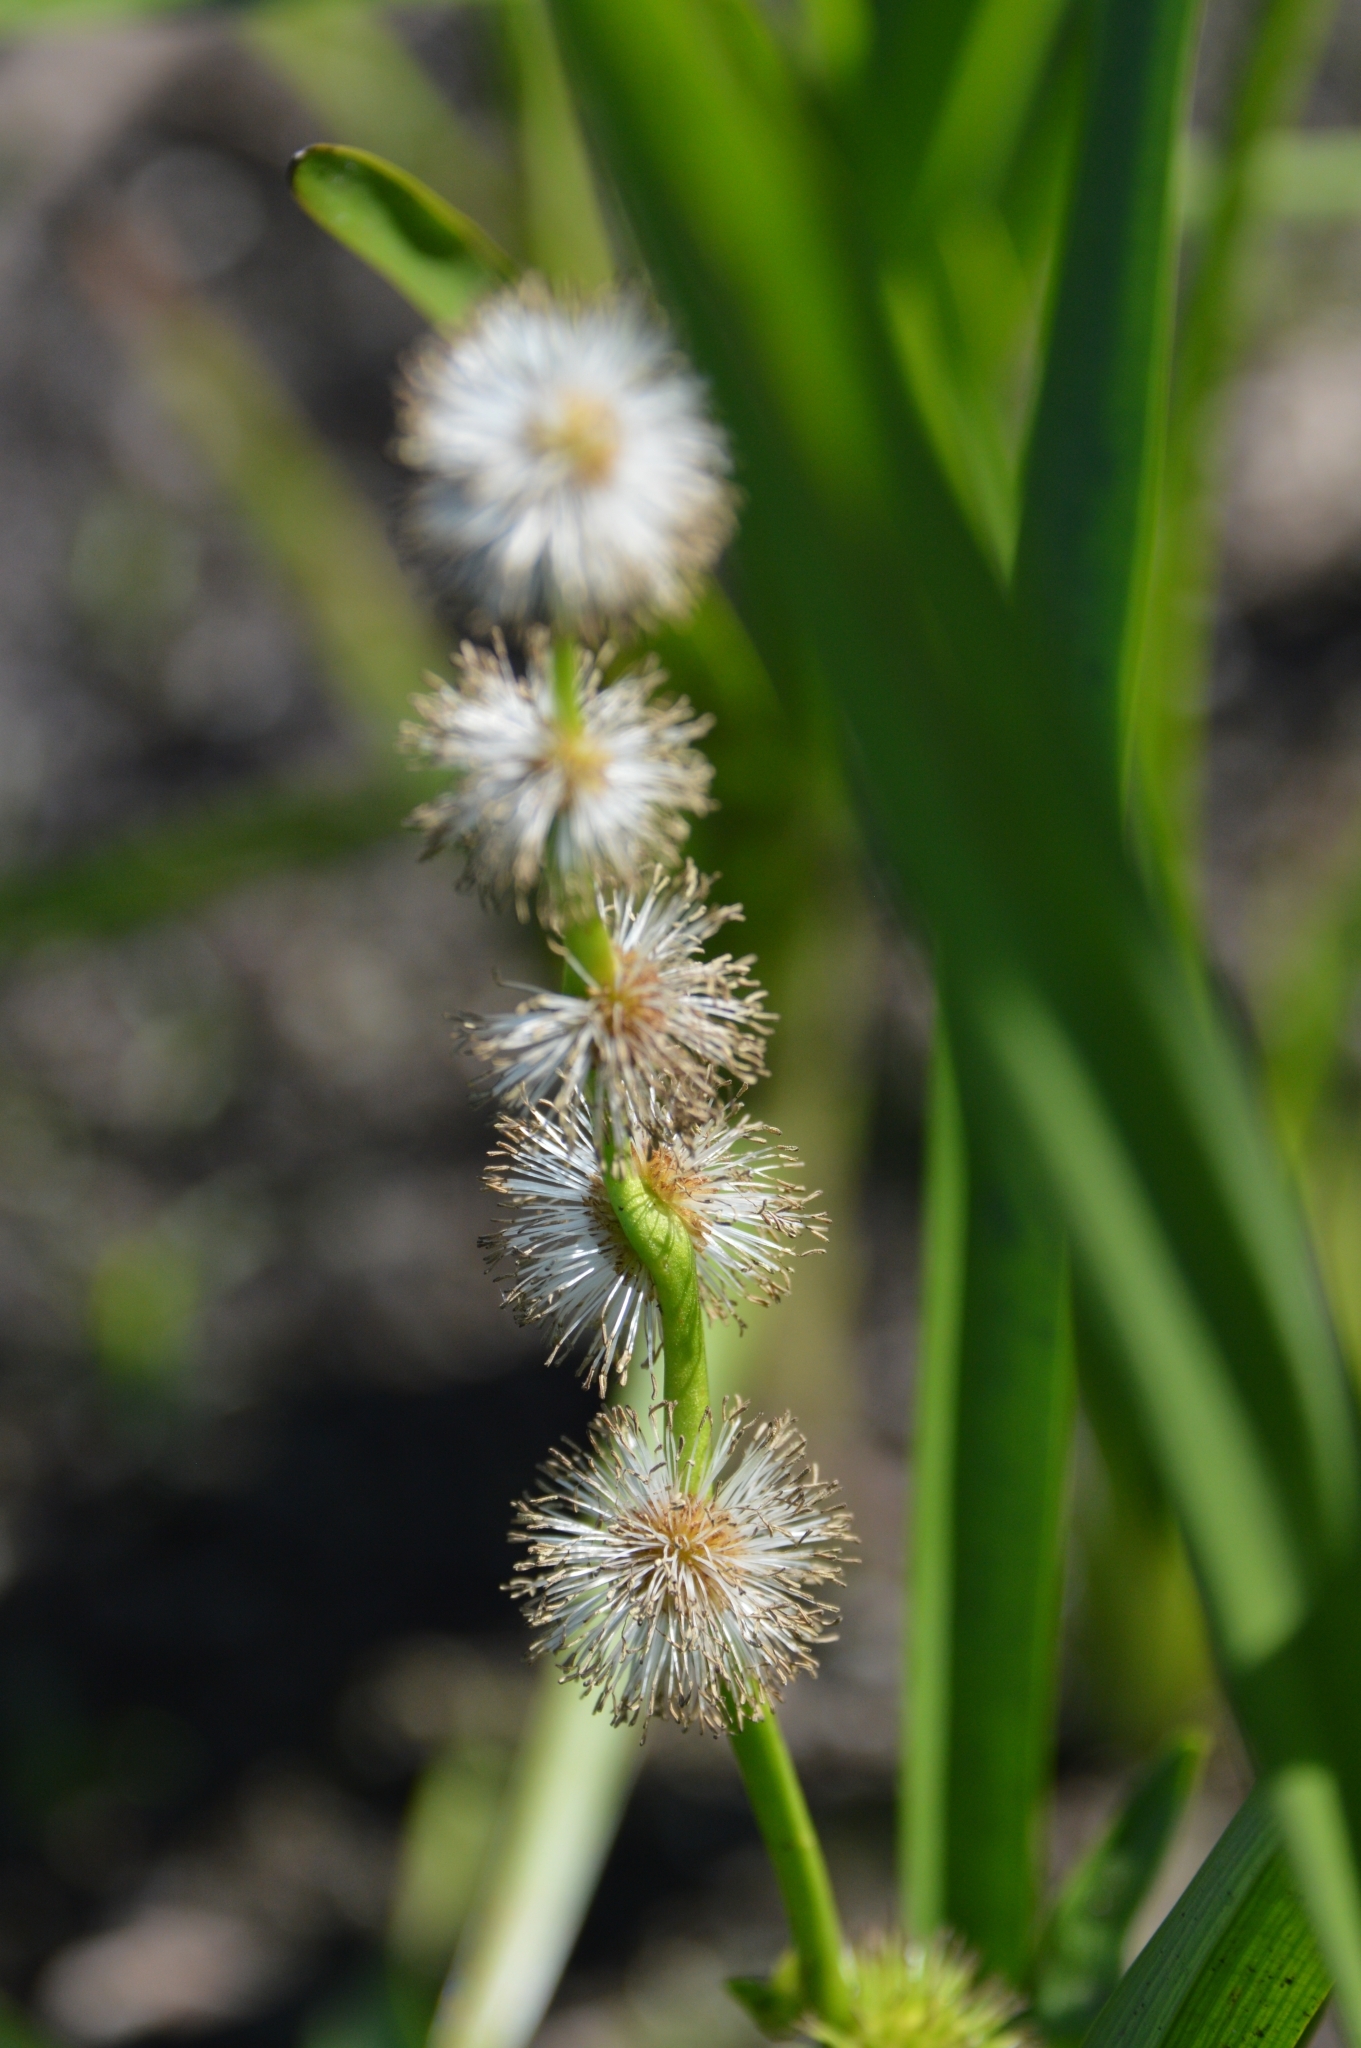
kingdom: Plantae
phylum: Tracheophyta
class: Liliopsida
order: Poales
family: Typhaceae
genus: Sparganium
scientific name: Sparganium emersum
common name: Unbranched bur-reed
